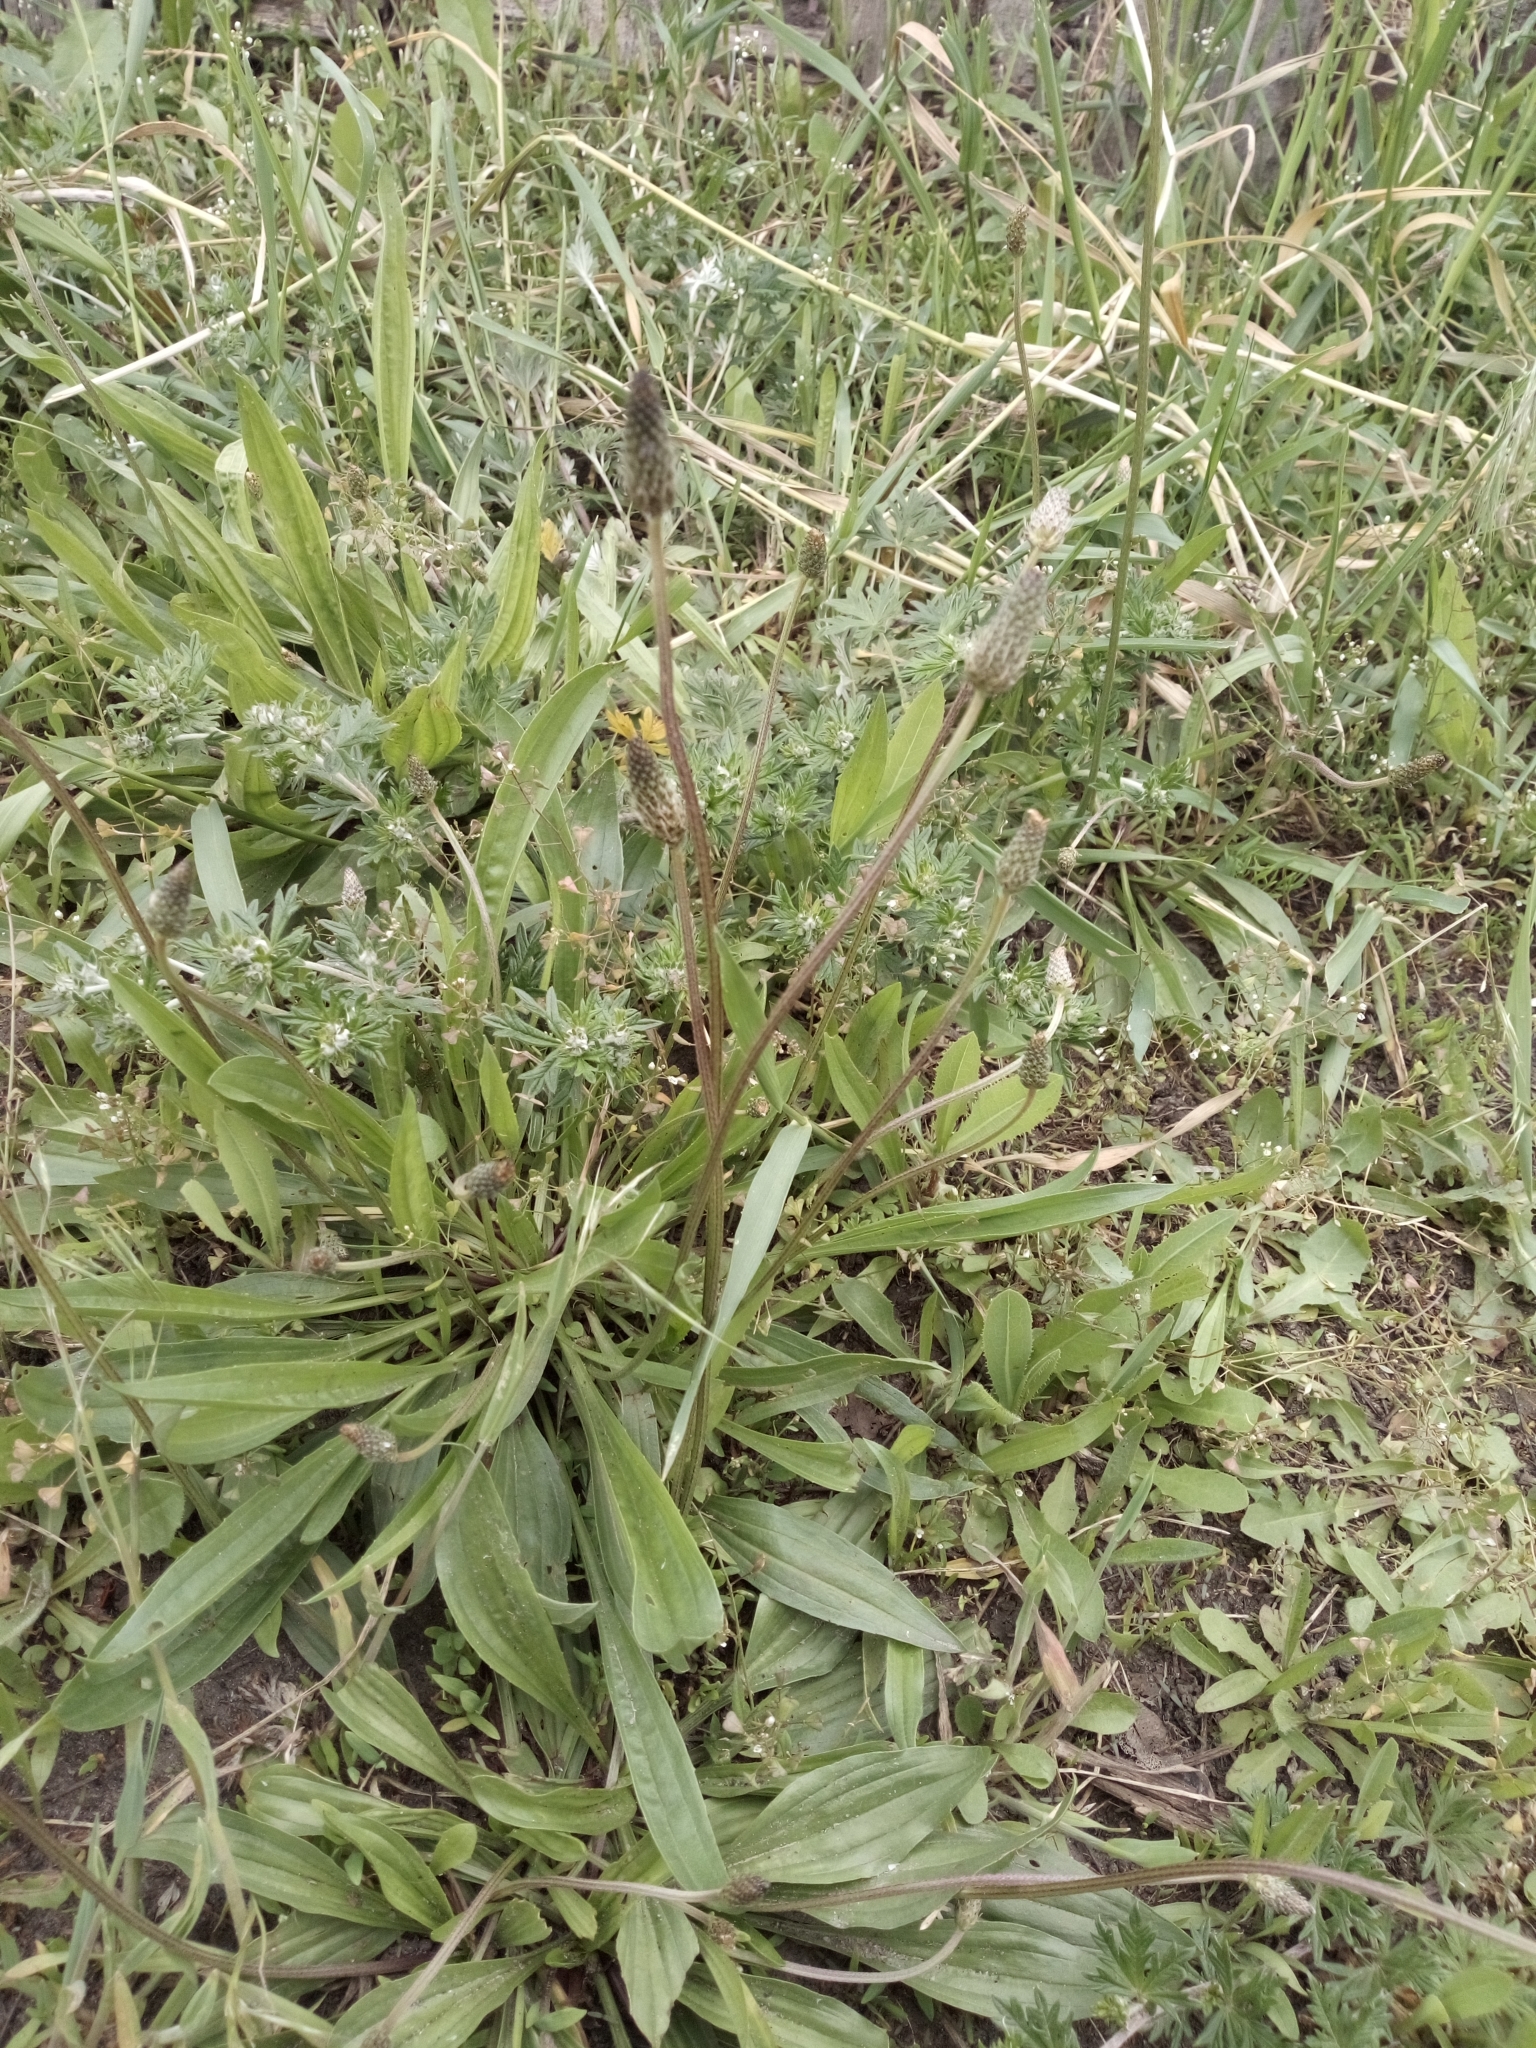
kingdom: Plantae
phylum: Tracheophyta
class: Magnoliopsida
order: Lamiales
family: Plantaginaceae
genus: Plantago
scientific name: Plantago lanceolata
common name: Ribwort plantain
